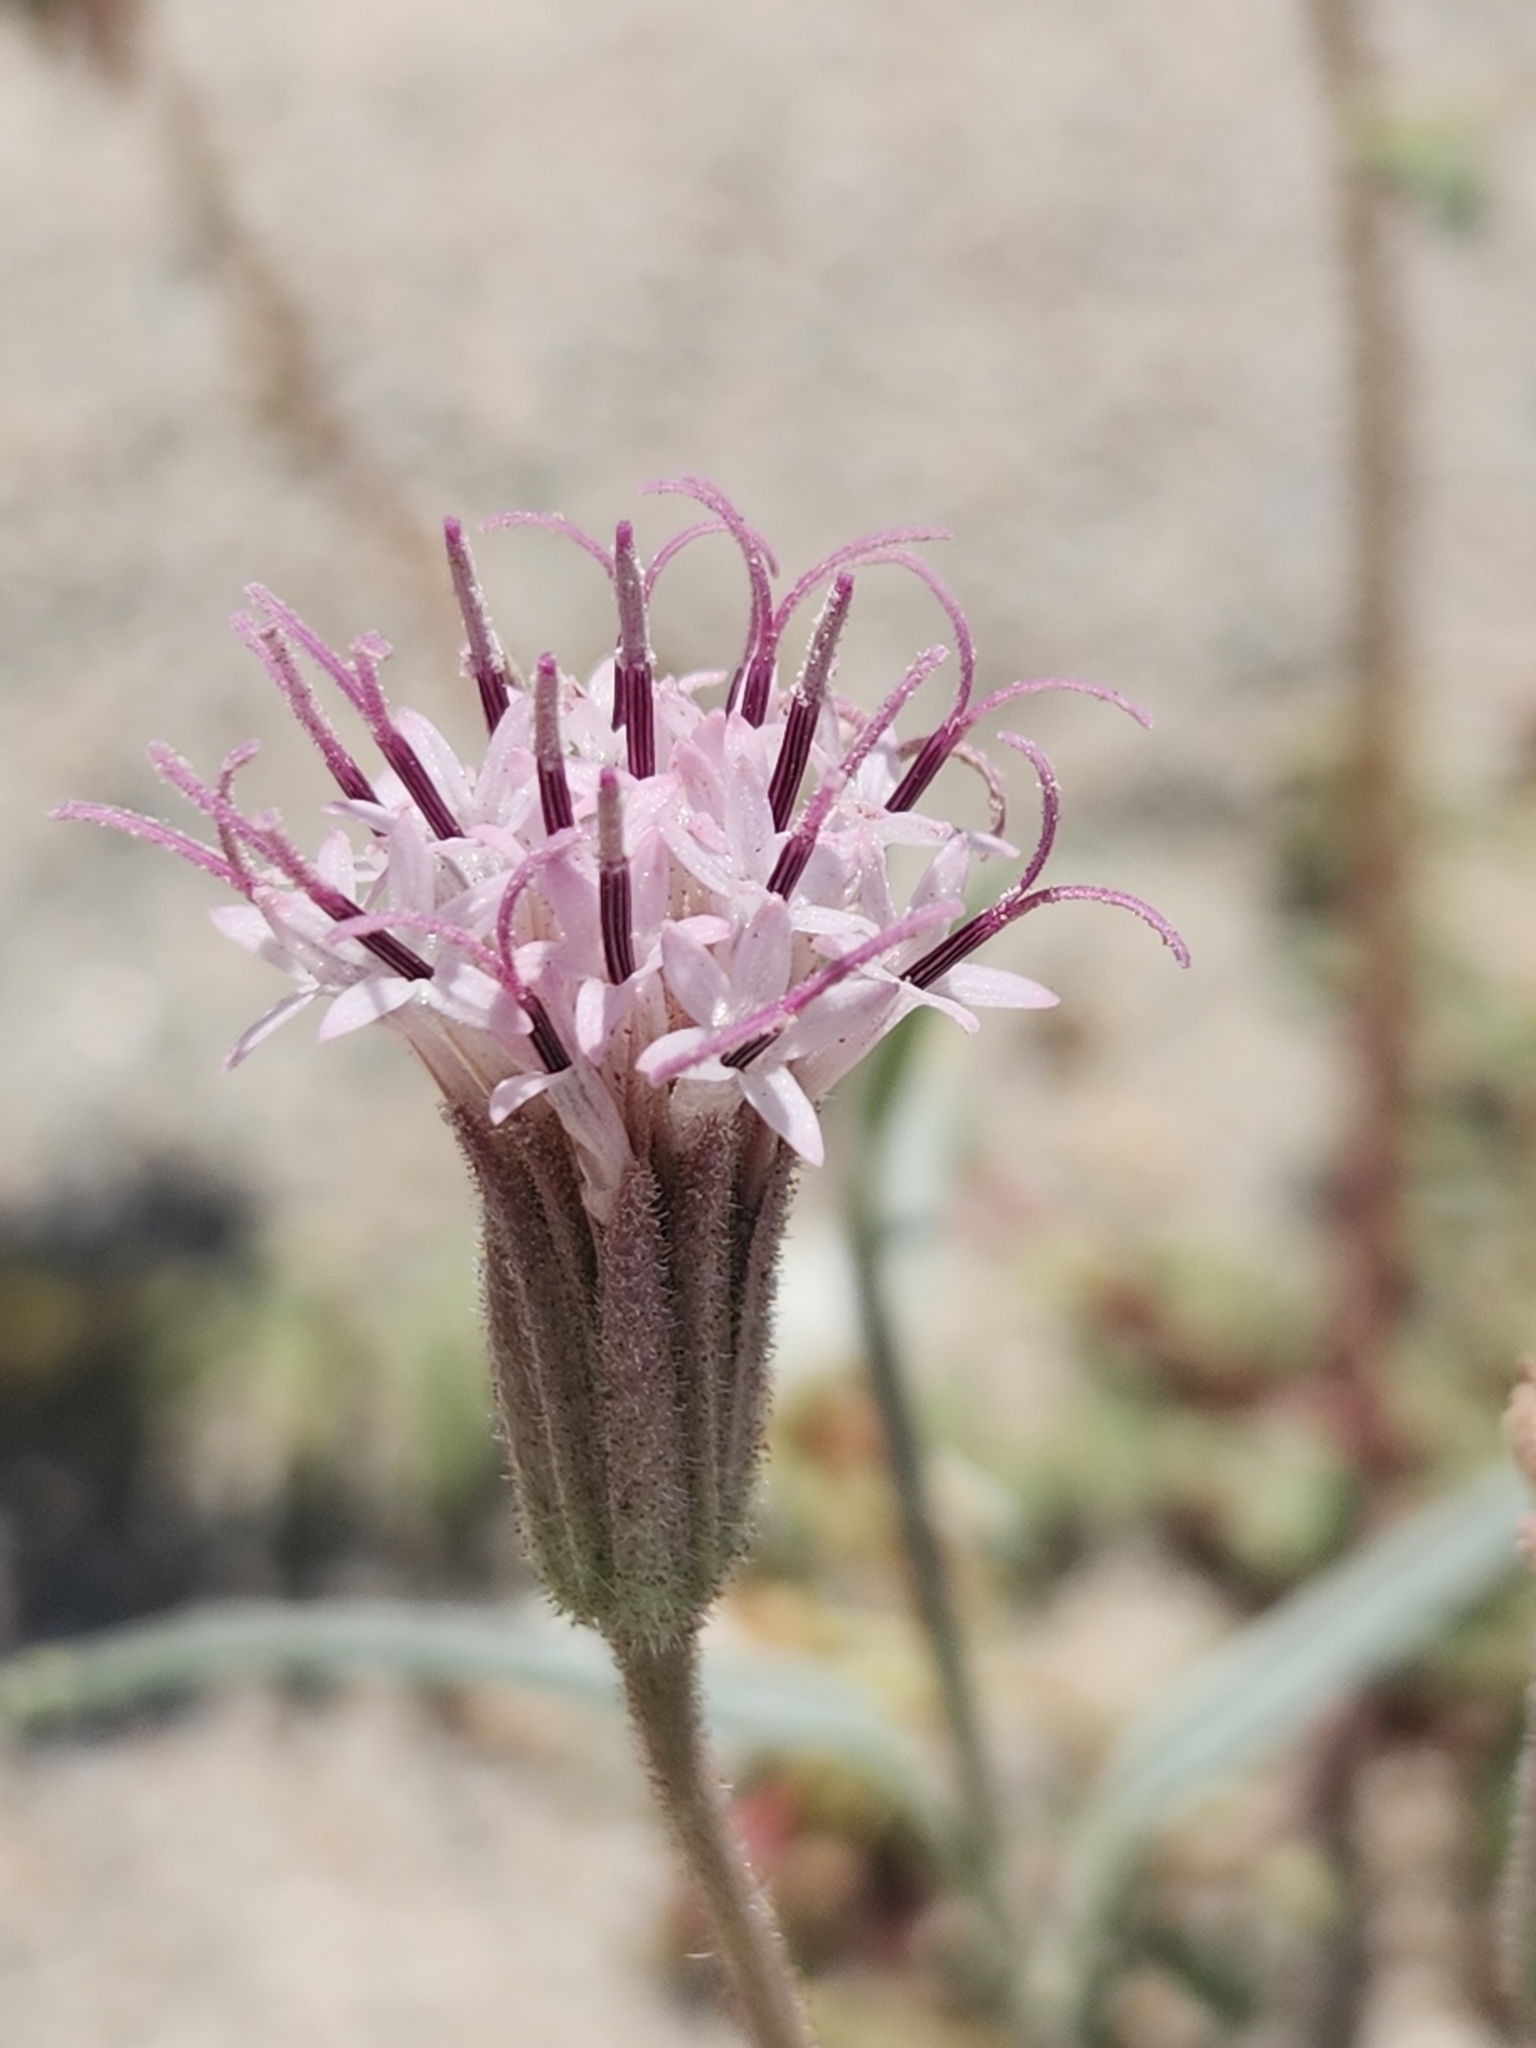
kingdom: Plantae
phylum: Tracheophyta
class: Magnoliopsida
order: Asterales
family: Asteraceae
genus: Palafoxia
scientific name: Palafoxia arida
